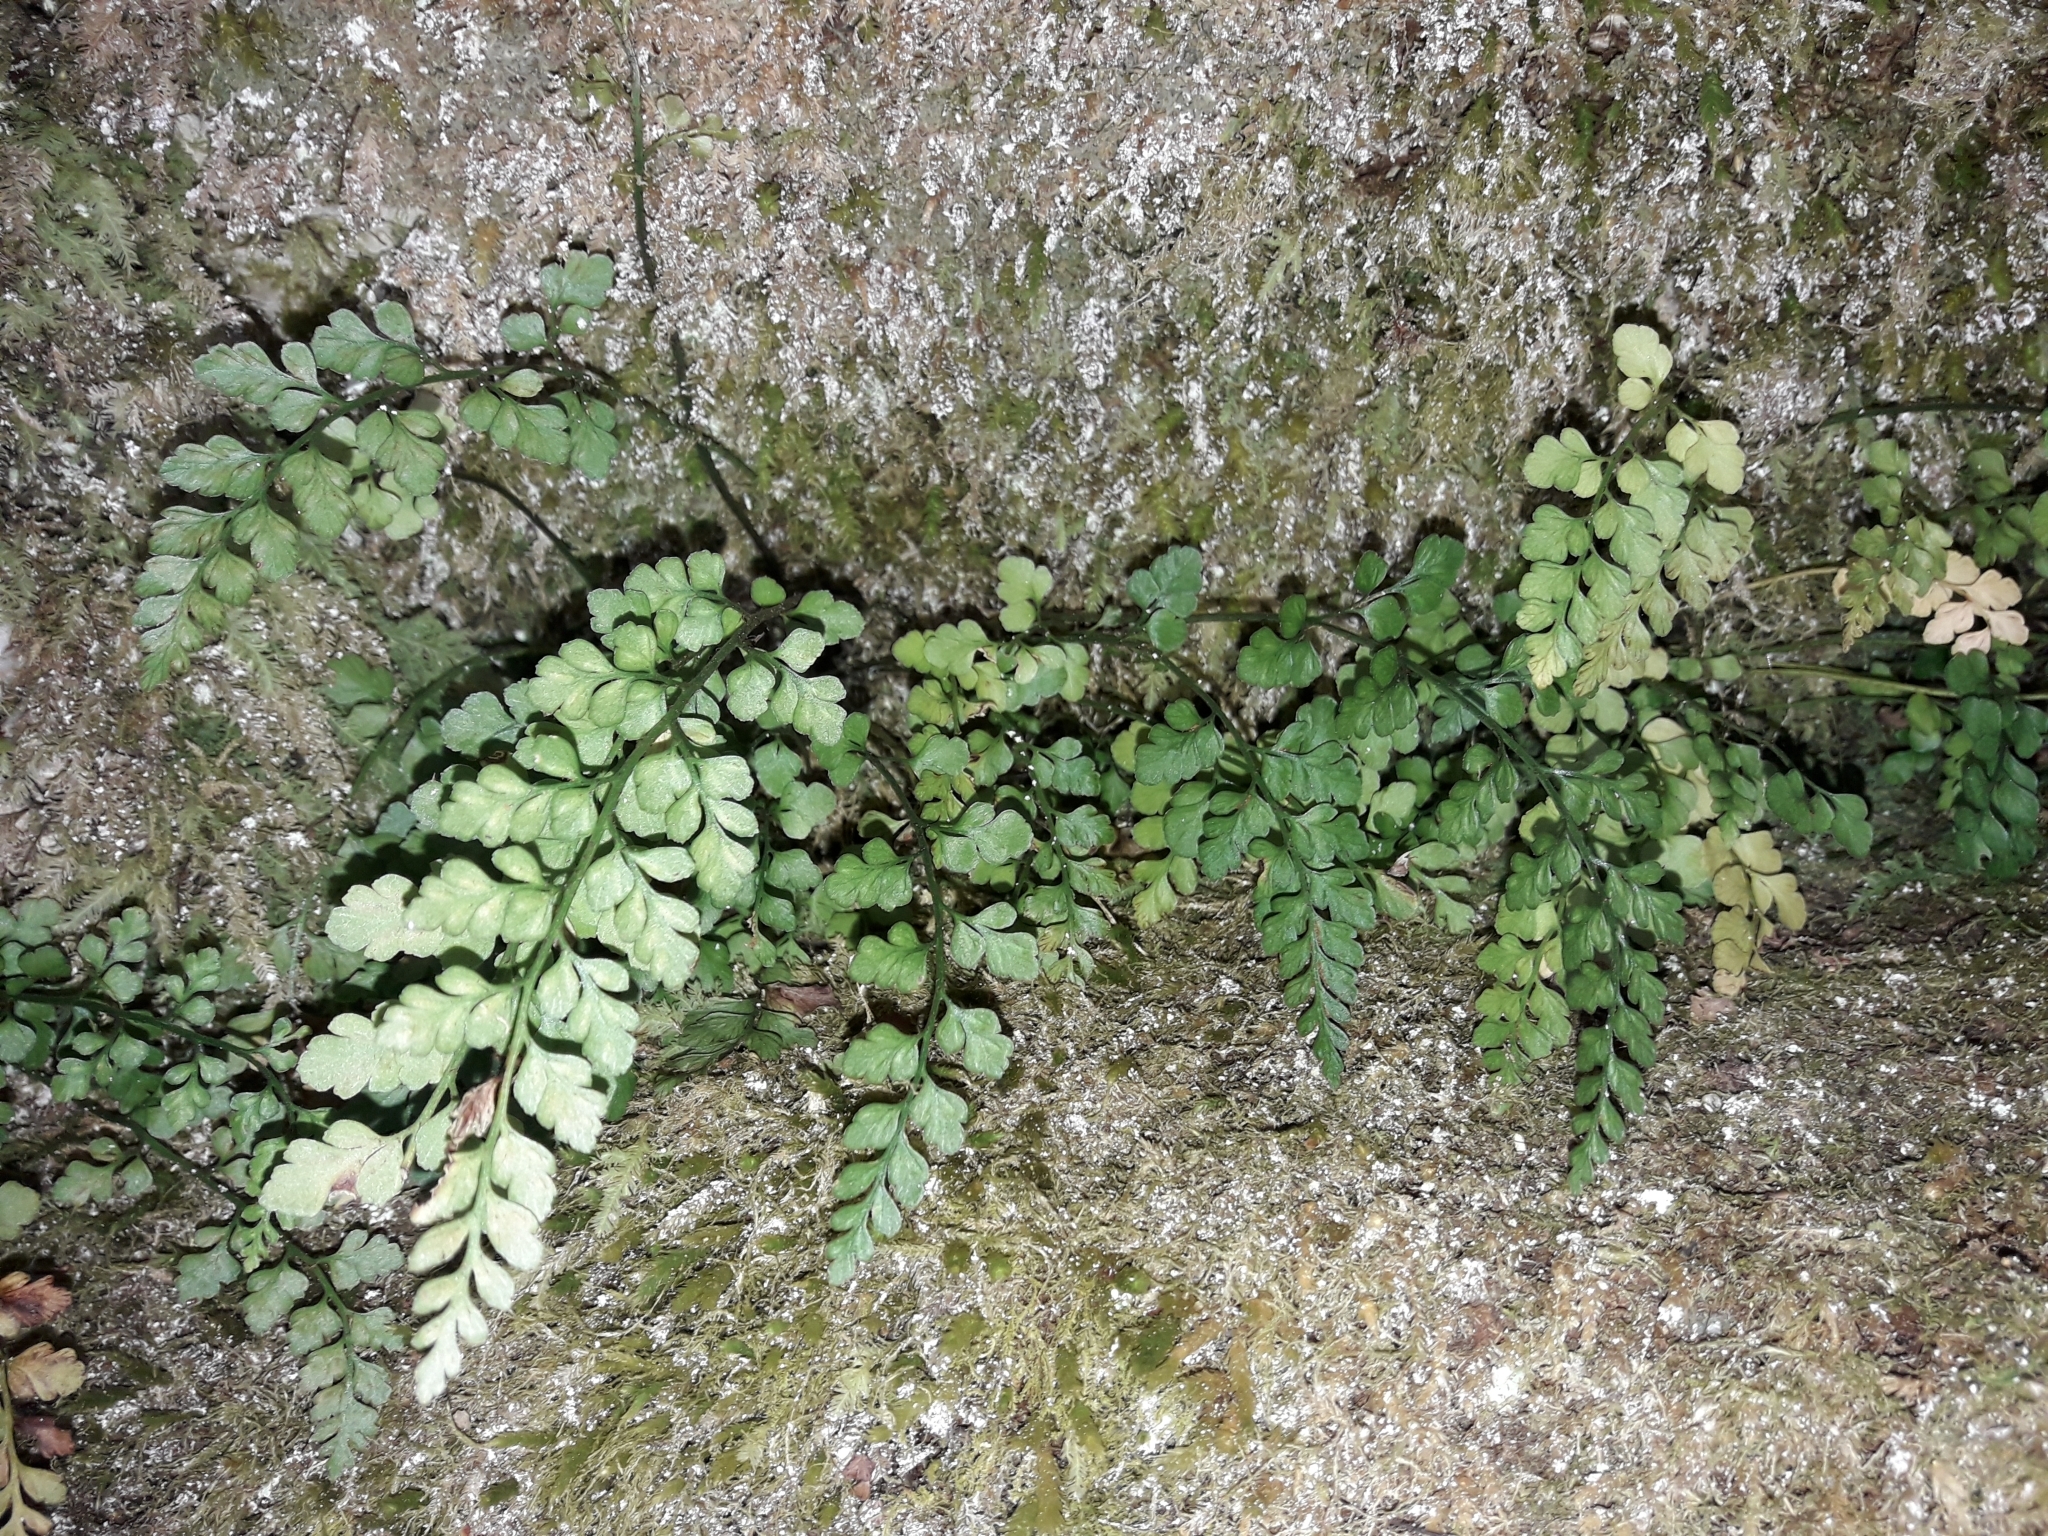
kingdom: Plantae
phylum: Tracheophyta
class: Polypodiopsida
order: Polypodiales
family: Aspleniaceae
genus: Asplenium
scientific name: Asplenium hookerianum
